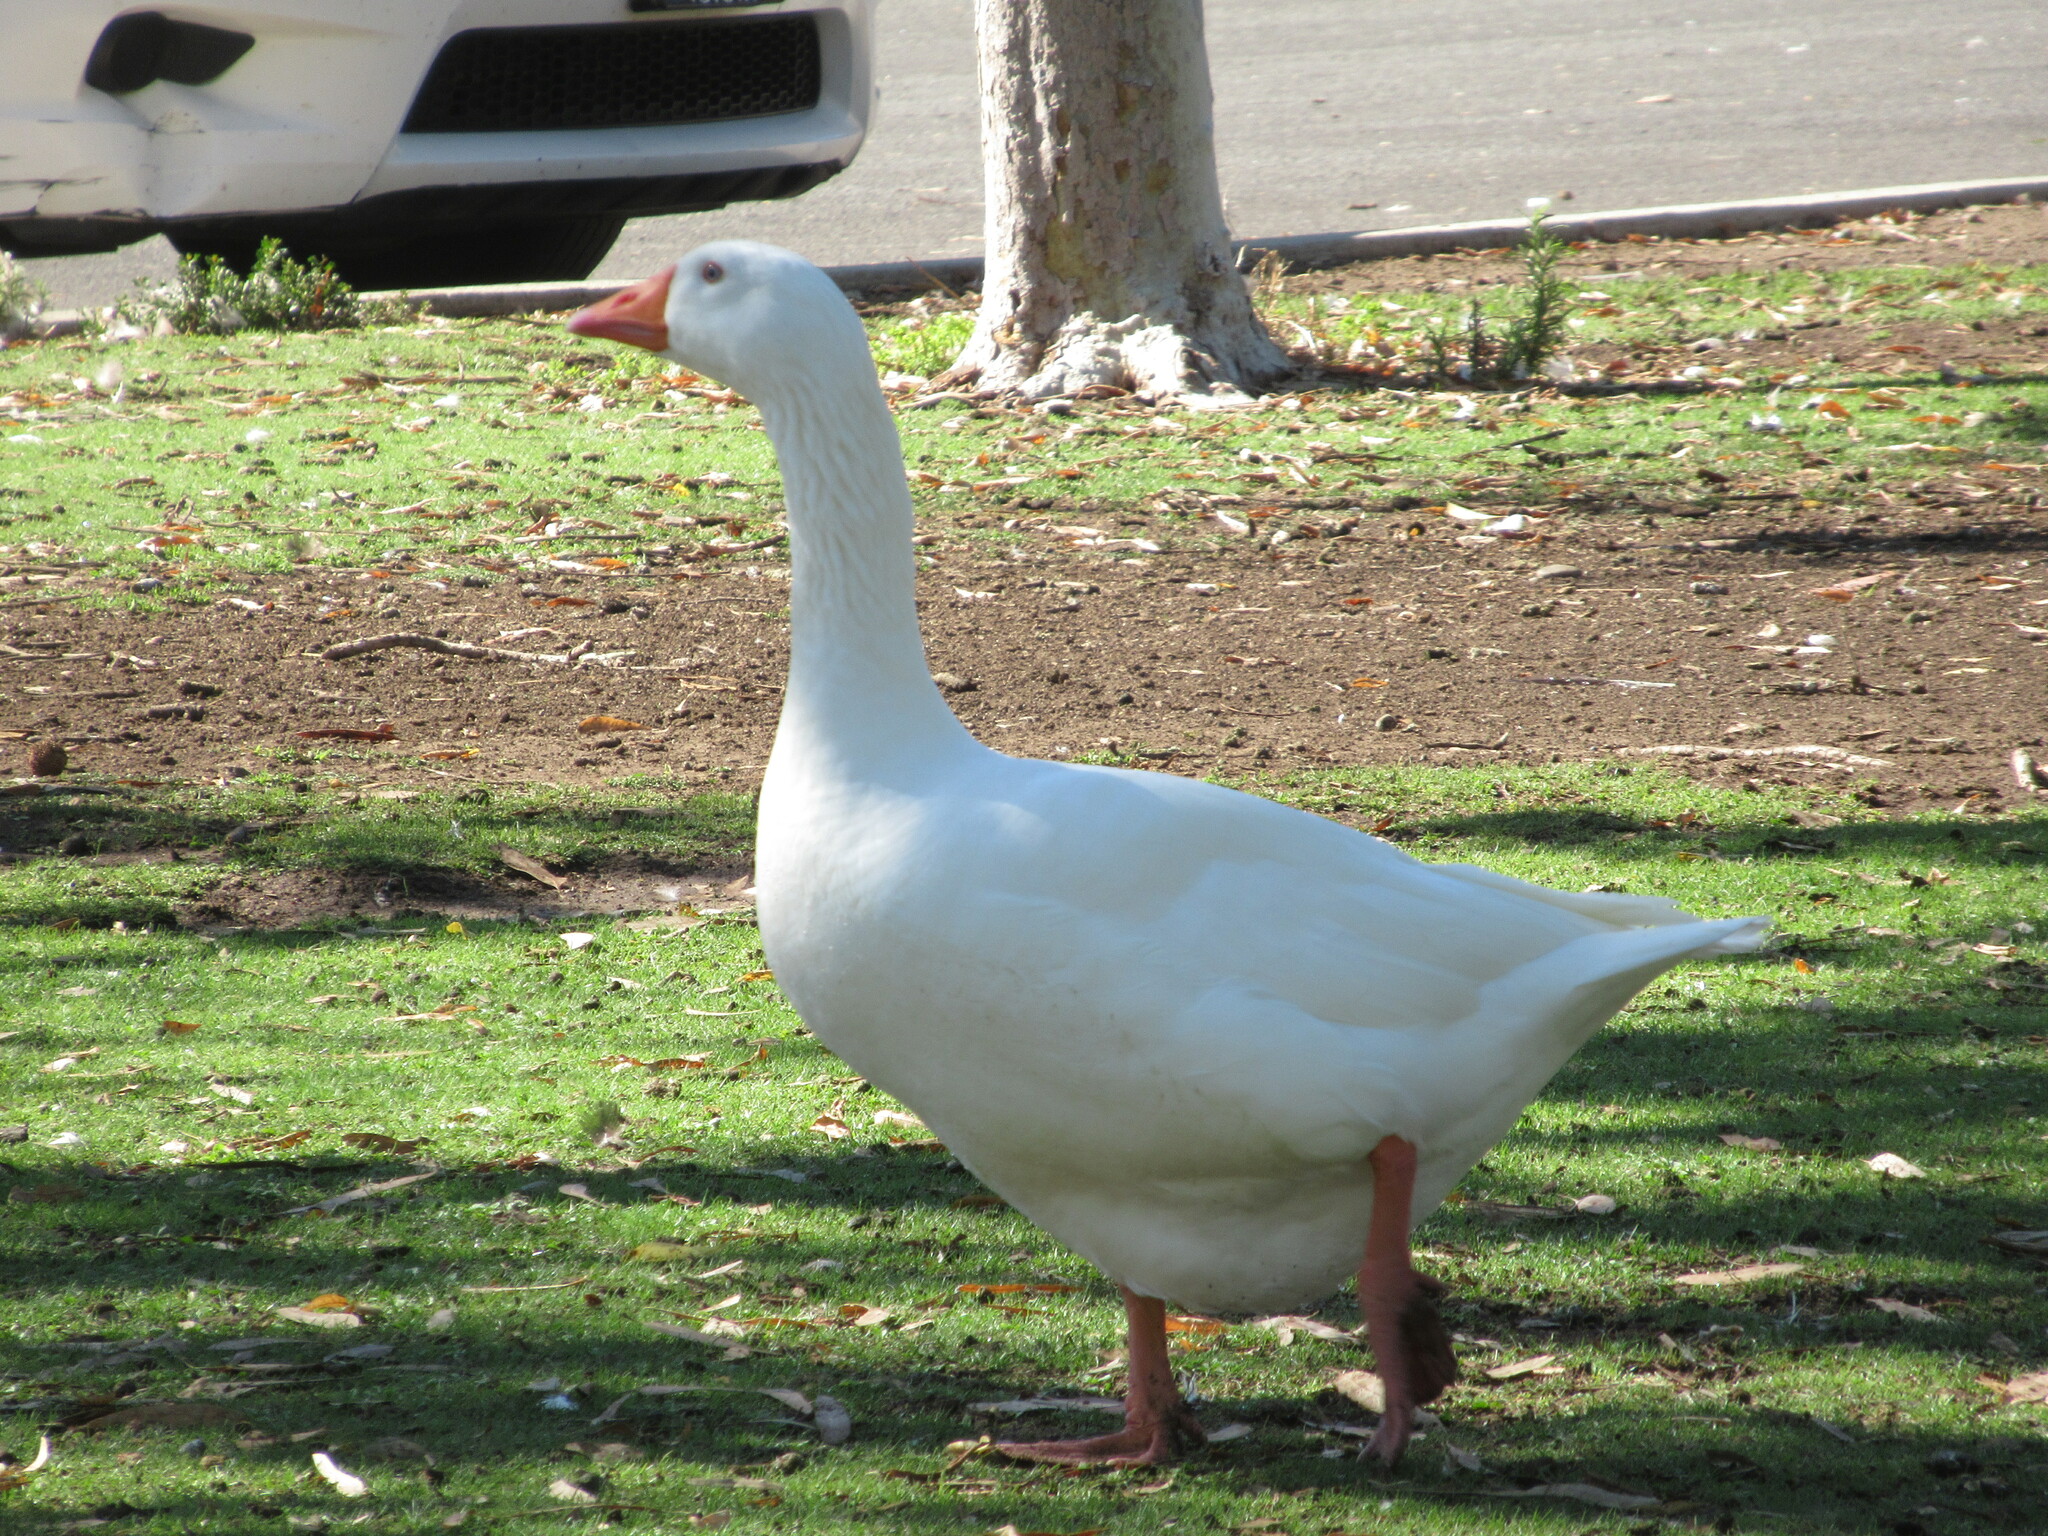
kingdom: Animalia
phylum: Chordata
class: Aves
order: Anseriformes
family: Anatidae
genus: Anser
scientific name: Anser anser
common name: Greylag goose
